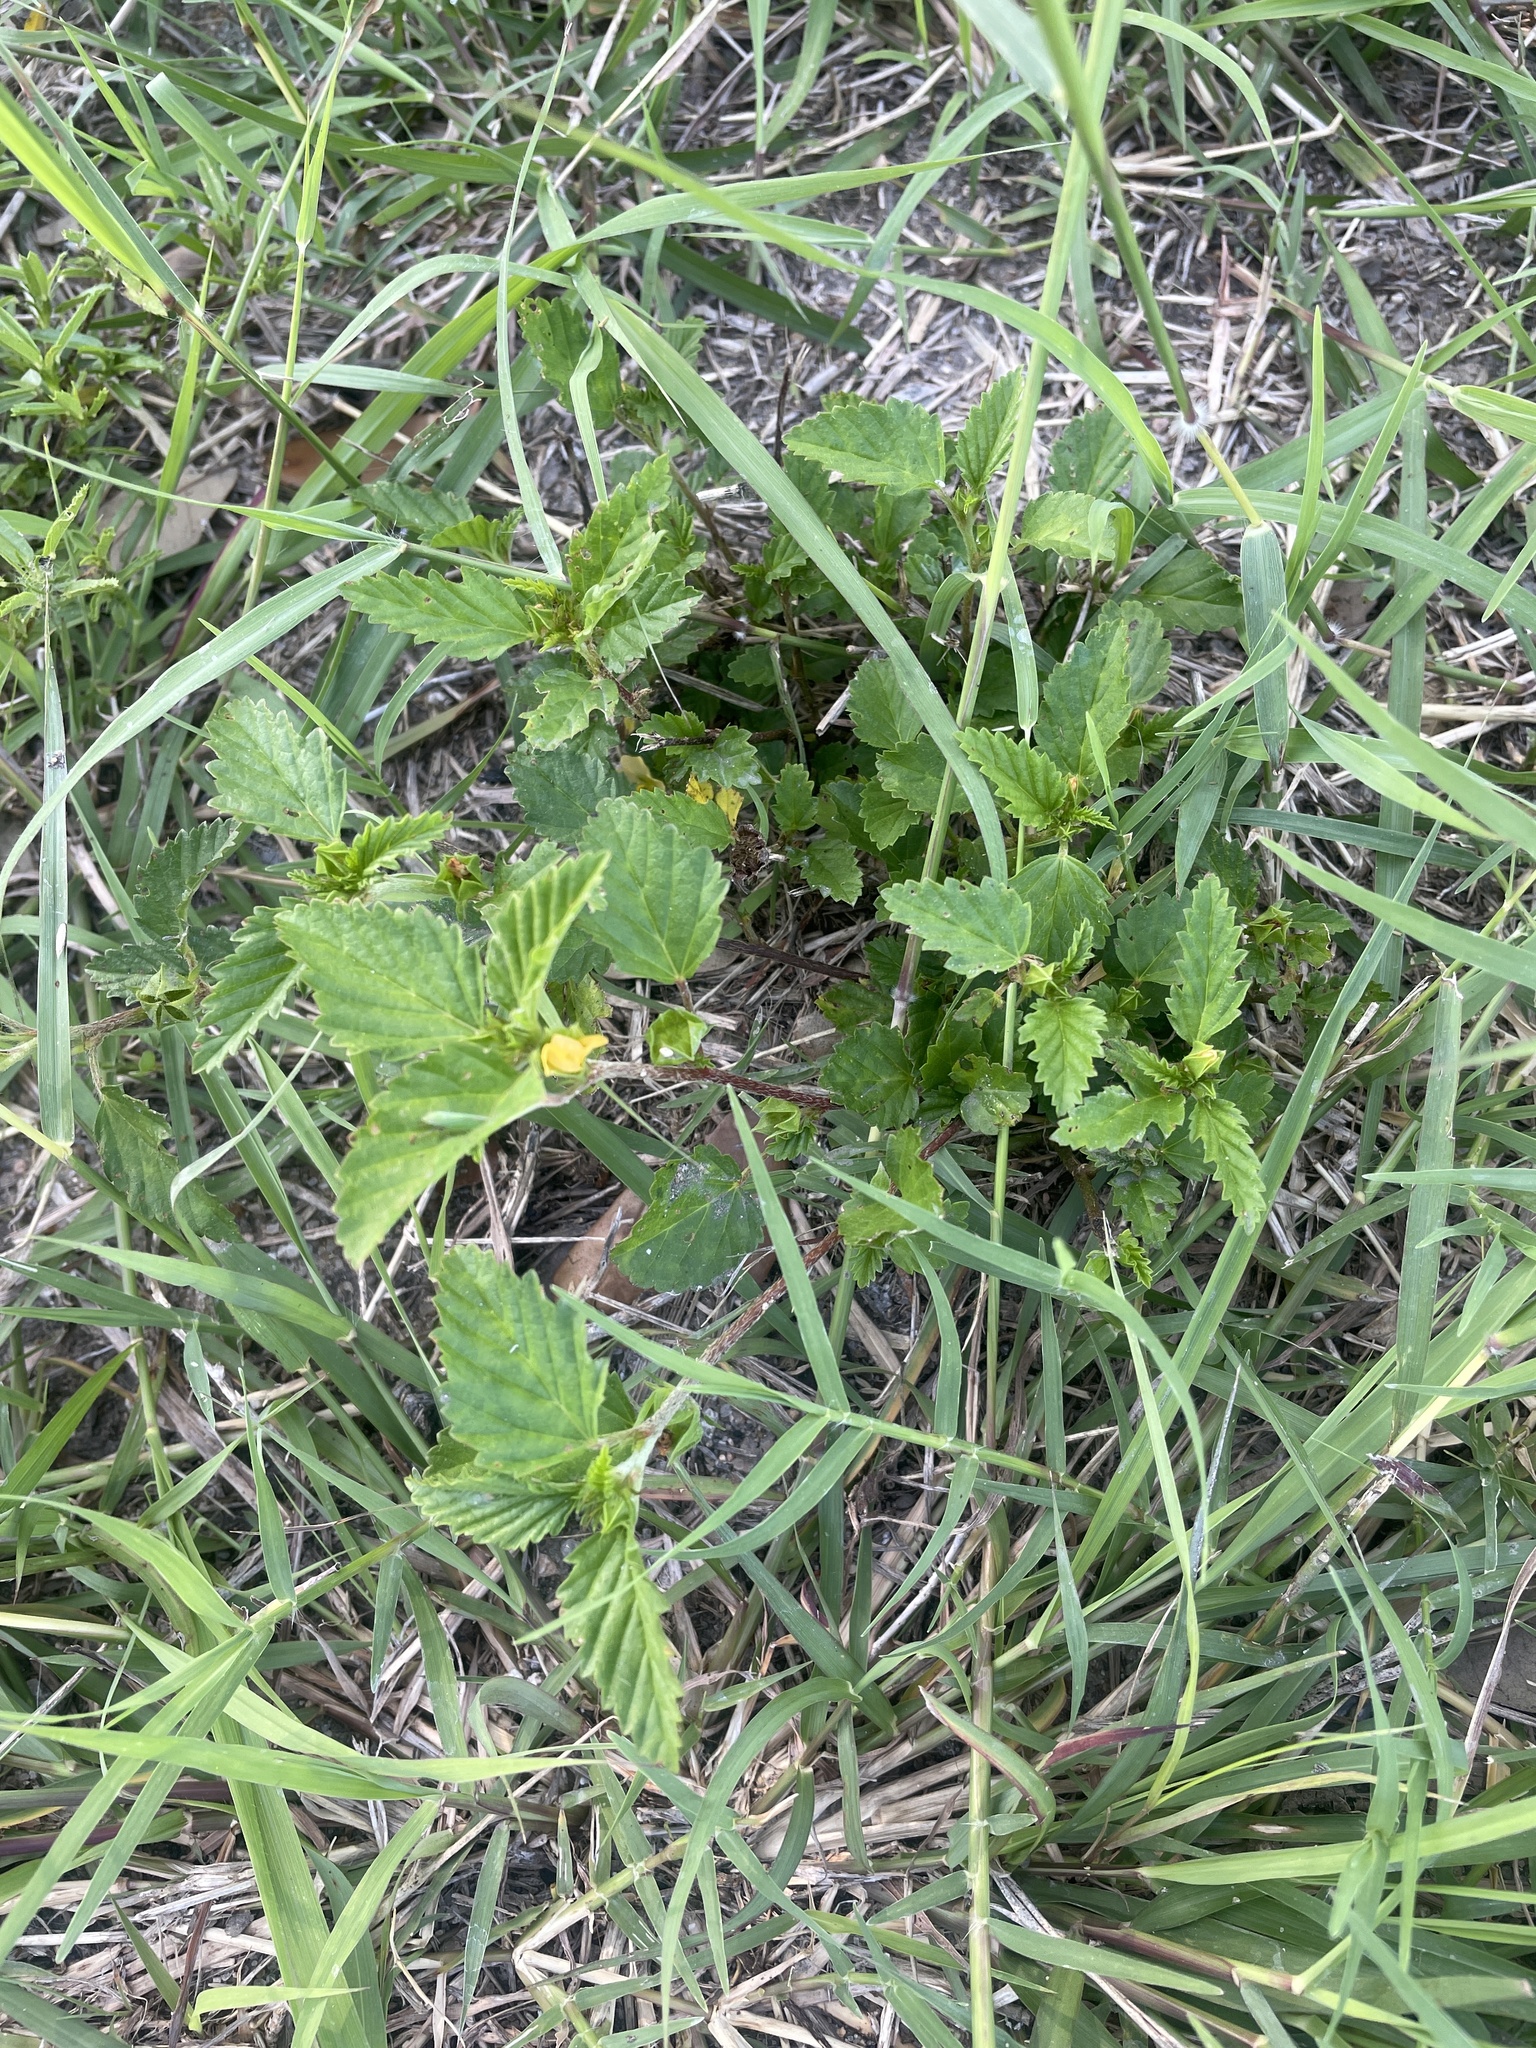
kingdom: Plantae
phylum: Tracheophyta
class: Magnoliopsida
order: Malvales
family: Malvaceae
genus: Malvastrum
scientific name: Malvastrum coromandelianum
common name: Threelobe false mallow
